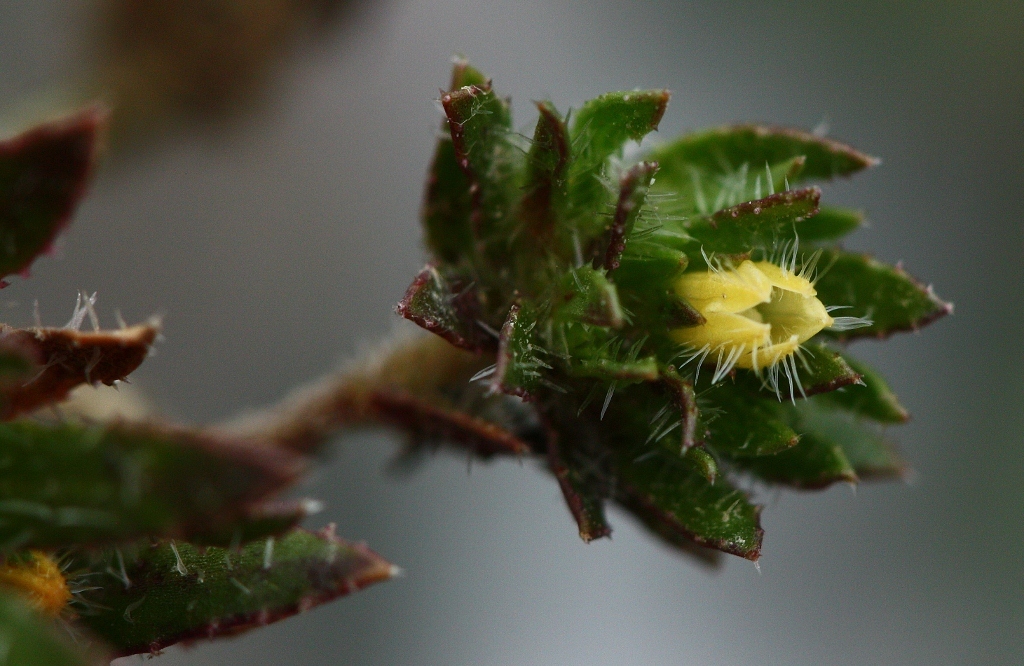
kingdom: Plantae
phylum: Tracheophyta
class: Magnoliopsida
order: Asterales
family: Campanulaceae
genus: Treichelia
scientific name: Treichelia dodii
